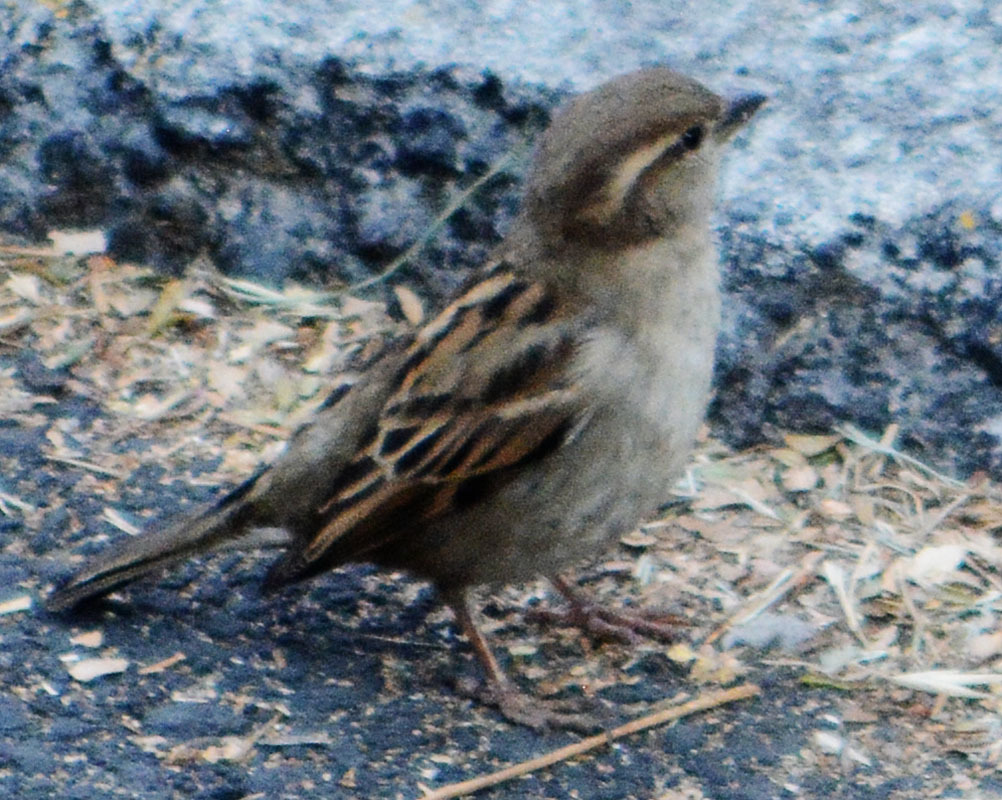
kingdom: Animalia
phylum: Chordata
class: Aves
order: Passeriformes
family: Passeridae
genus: Passer
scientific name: Passer domesticus
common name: House sparrow
